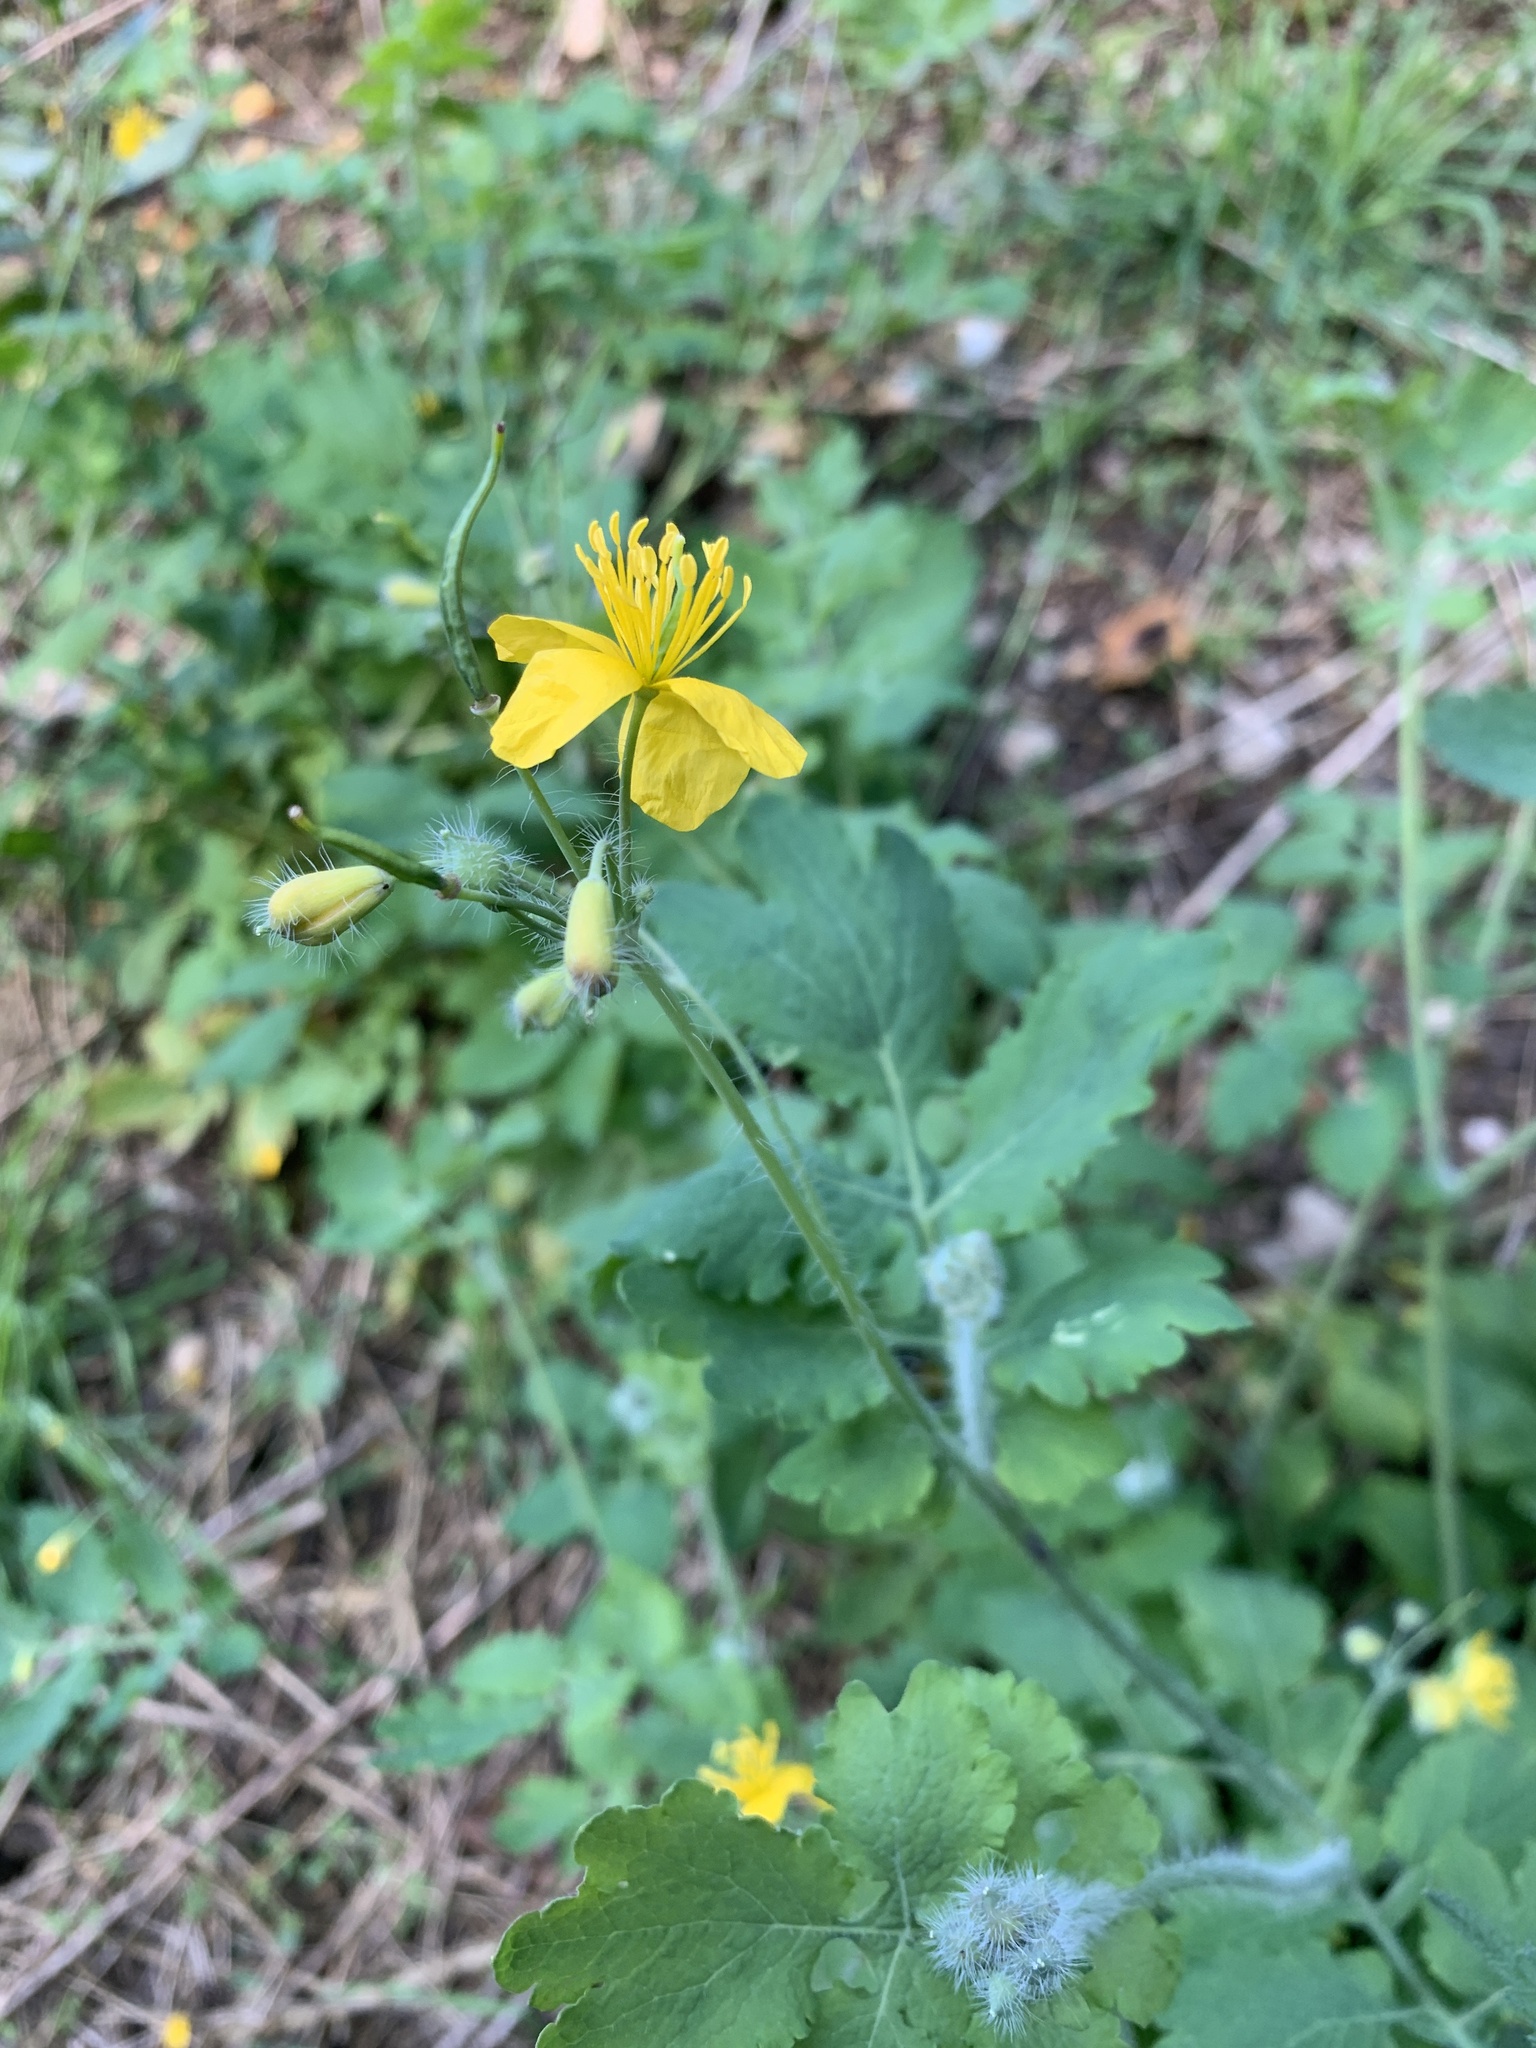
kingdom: Plantae
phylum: Tracheophyta
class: Magnoliopsida
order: Ranunculales
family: Papaveraceae
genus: Chelidonium
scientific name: Chelidonium majus
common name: Greater celandine
